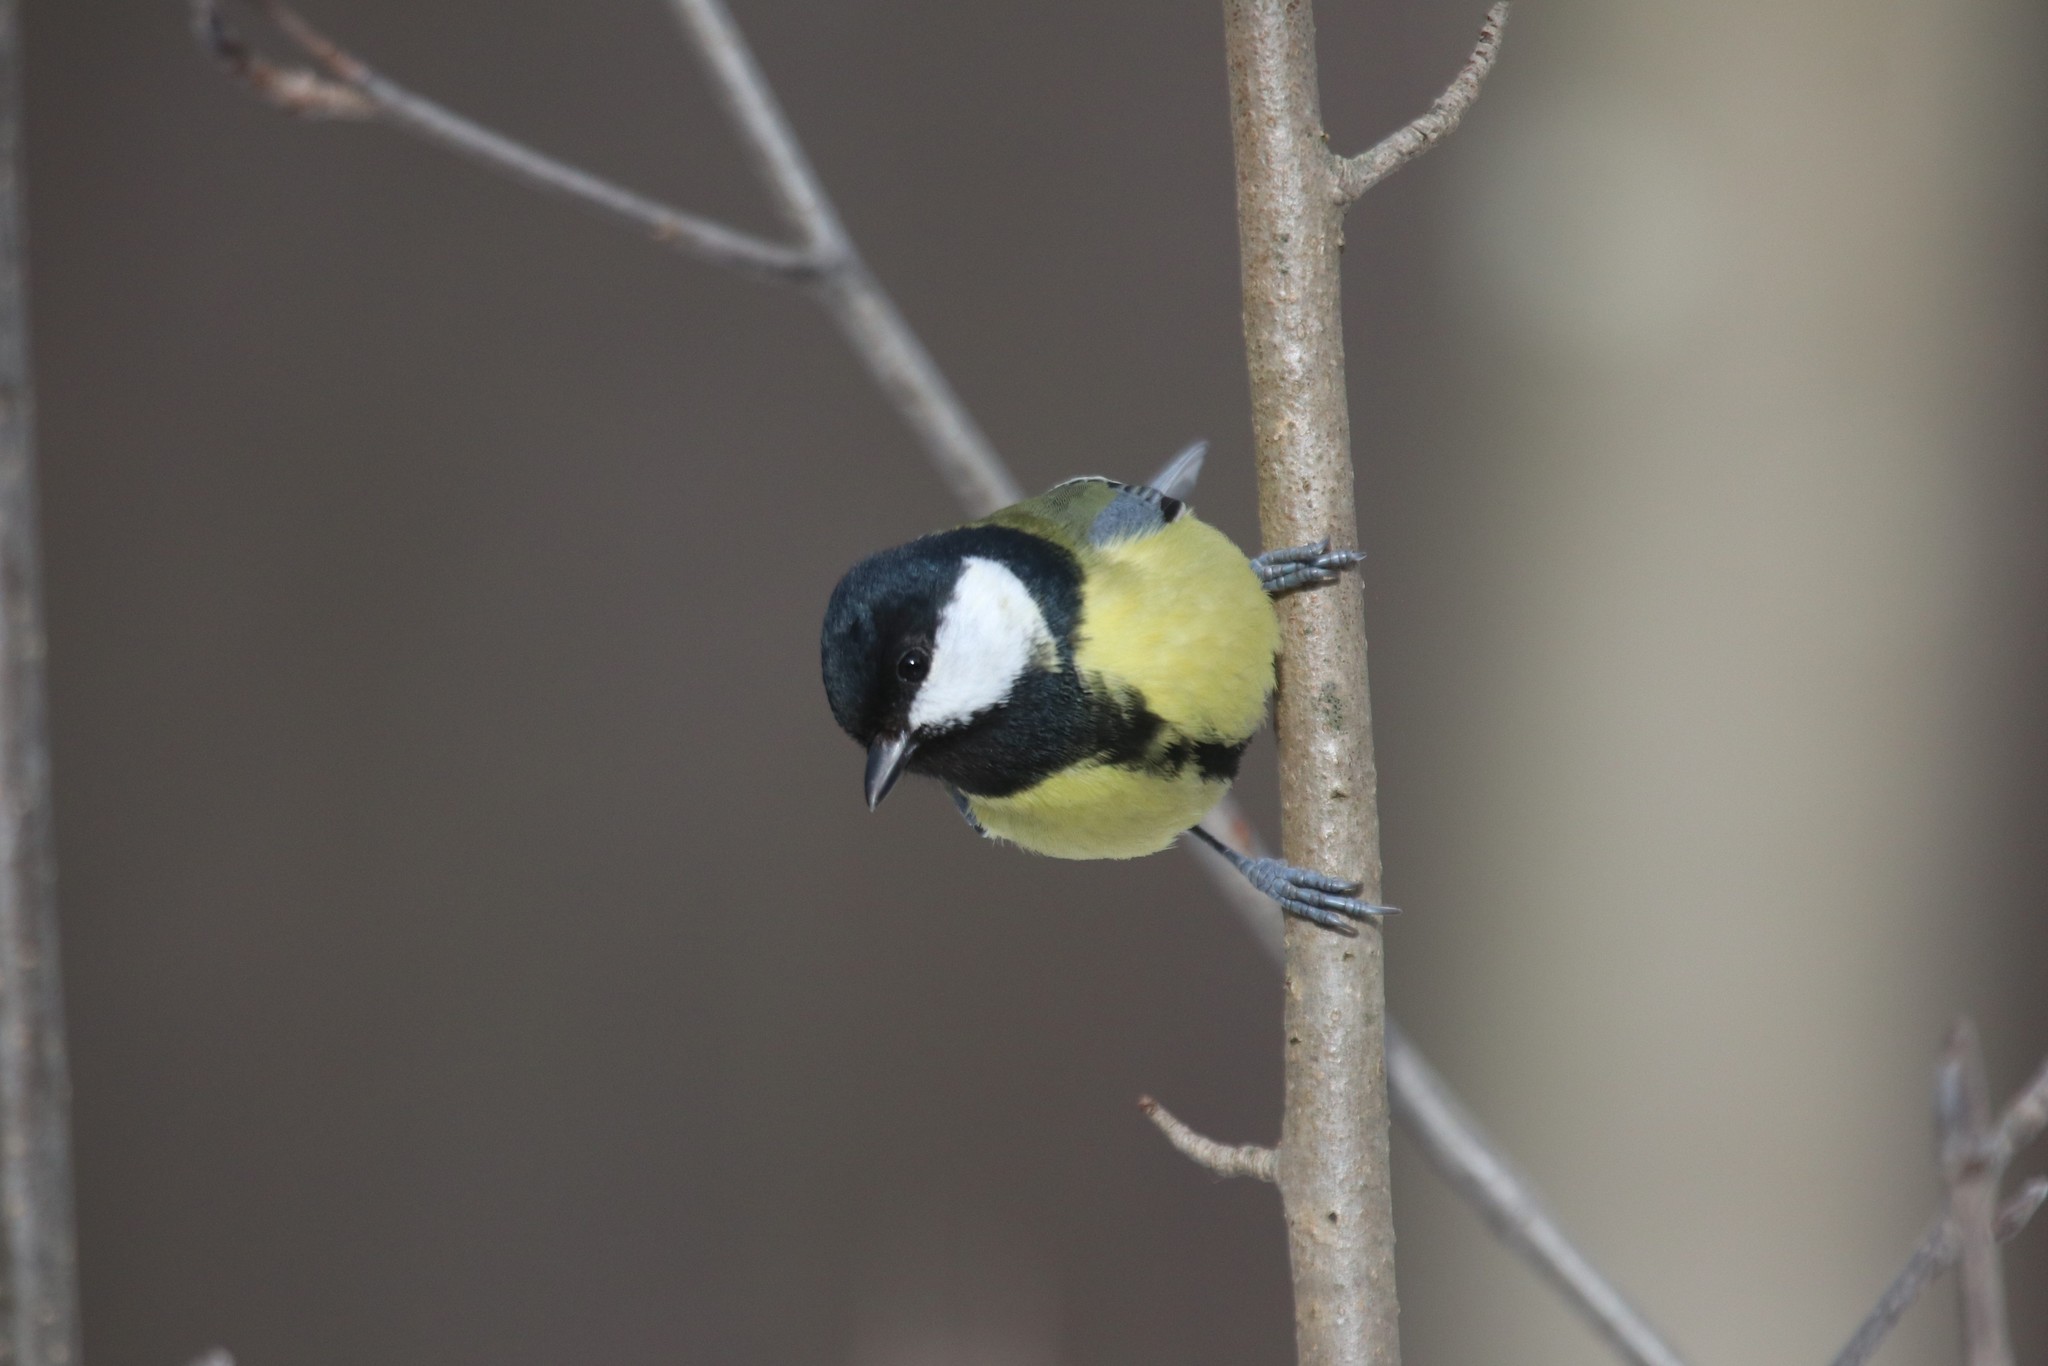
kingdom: Animalia
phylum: Chordata
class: Aves
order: Passeriformes
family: Paridae
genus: Parus
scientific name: Parus major
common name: Great tit
